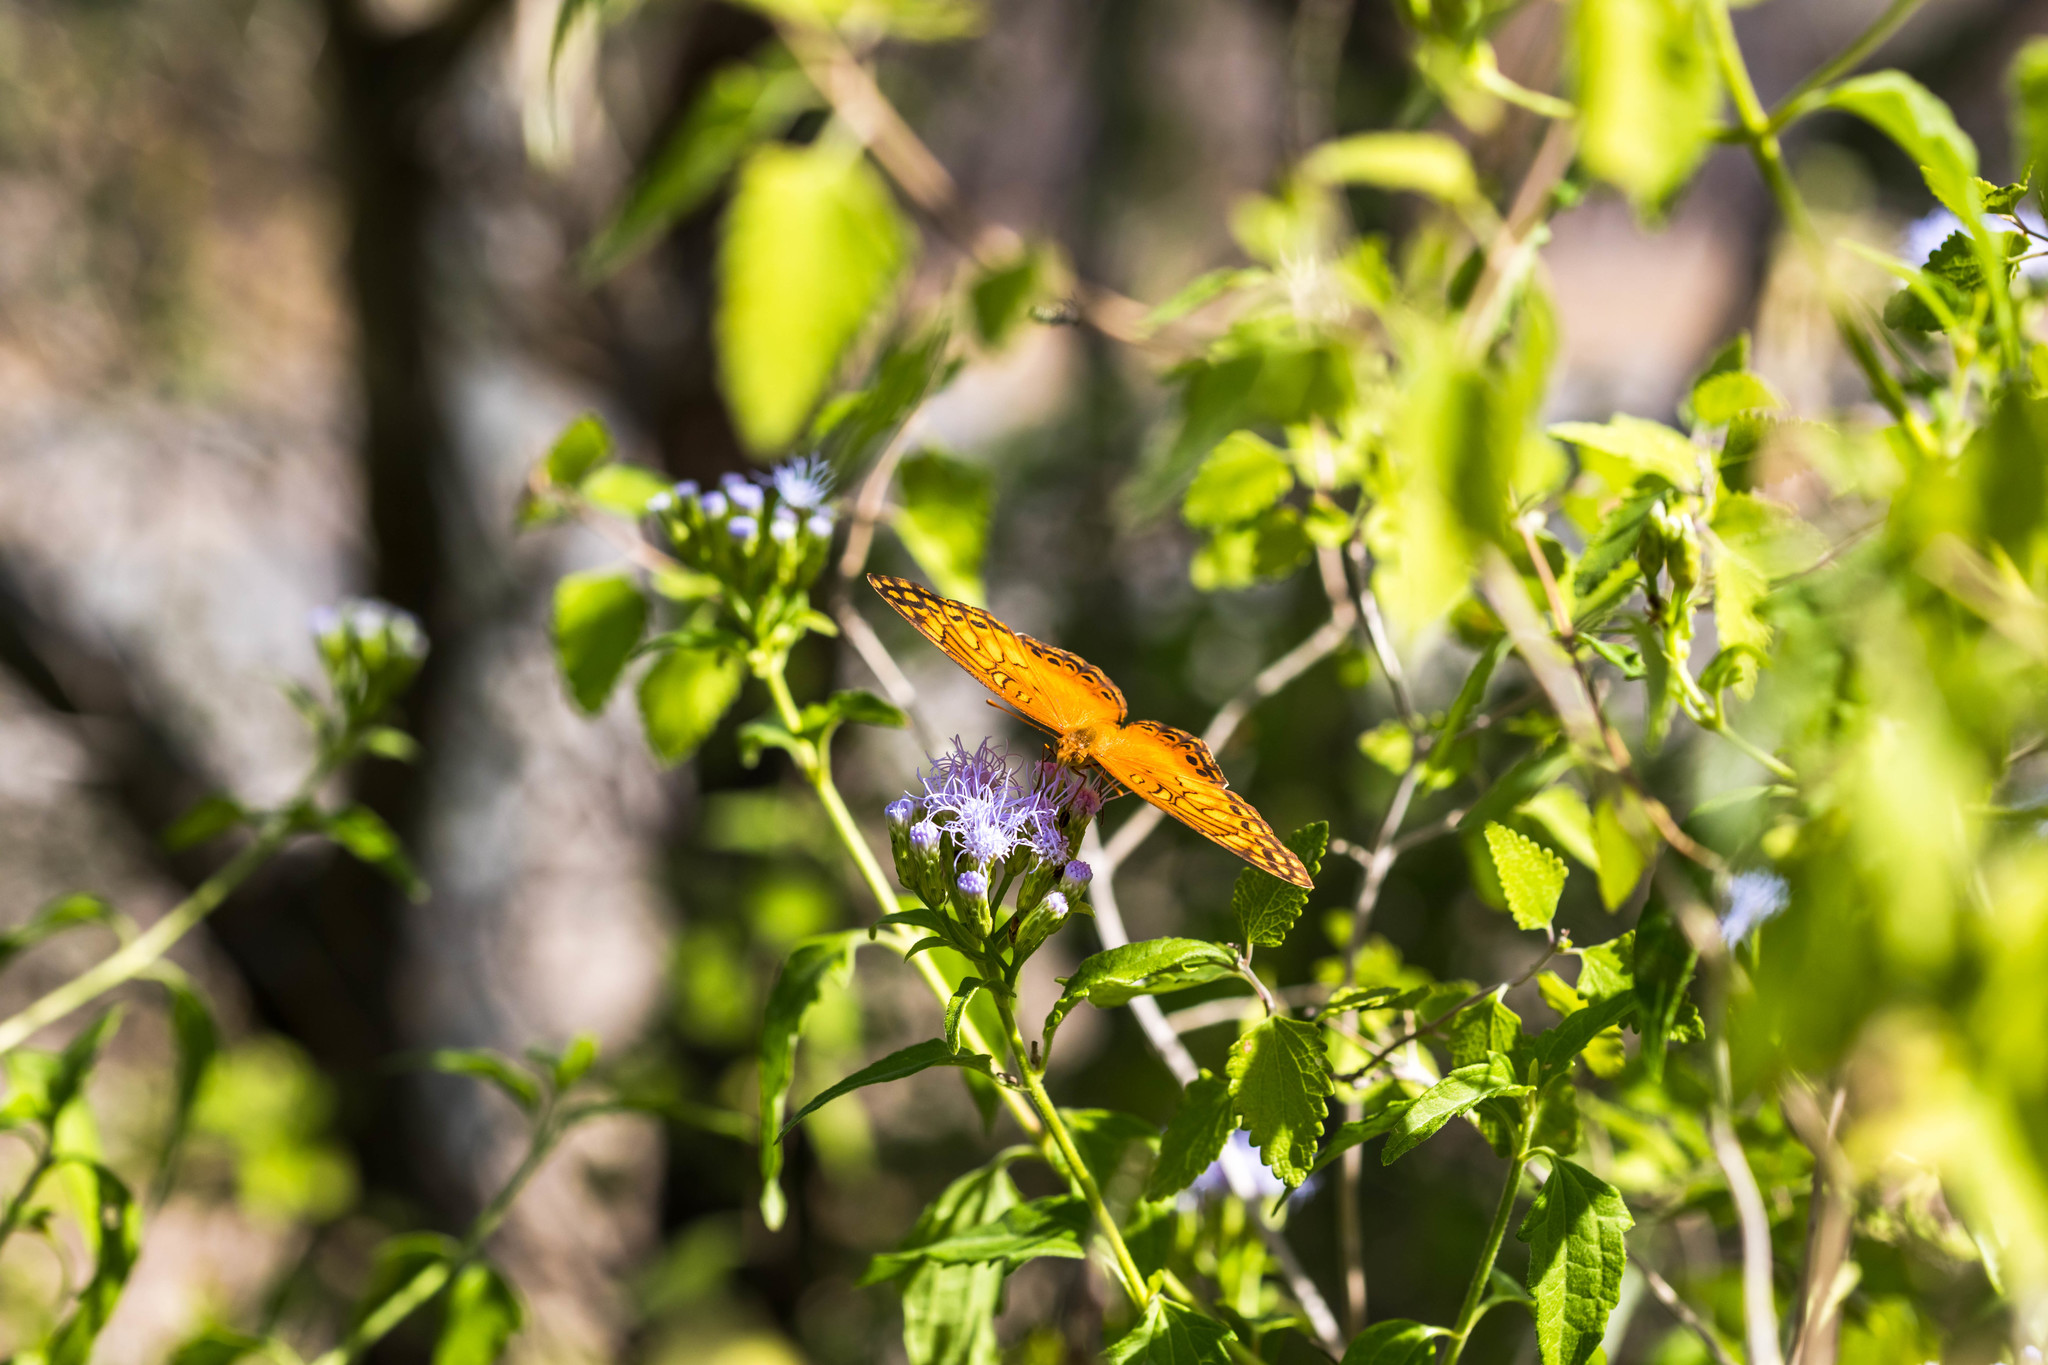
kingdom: Animalia
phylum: Arthropoda
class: Insecta
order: Lepidoptera
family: Nymphalidae
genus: Euptoieta
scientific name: Euptoieta hegesia
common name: Mexican fritillary
